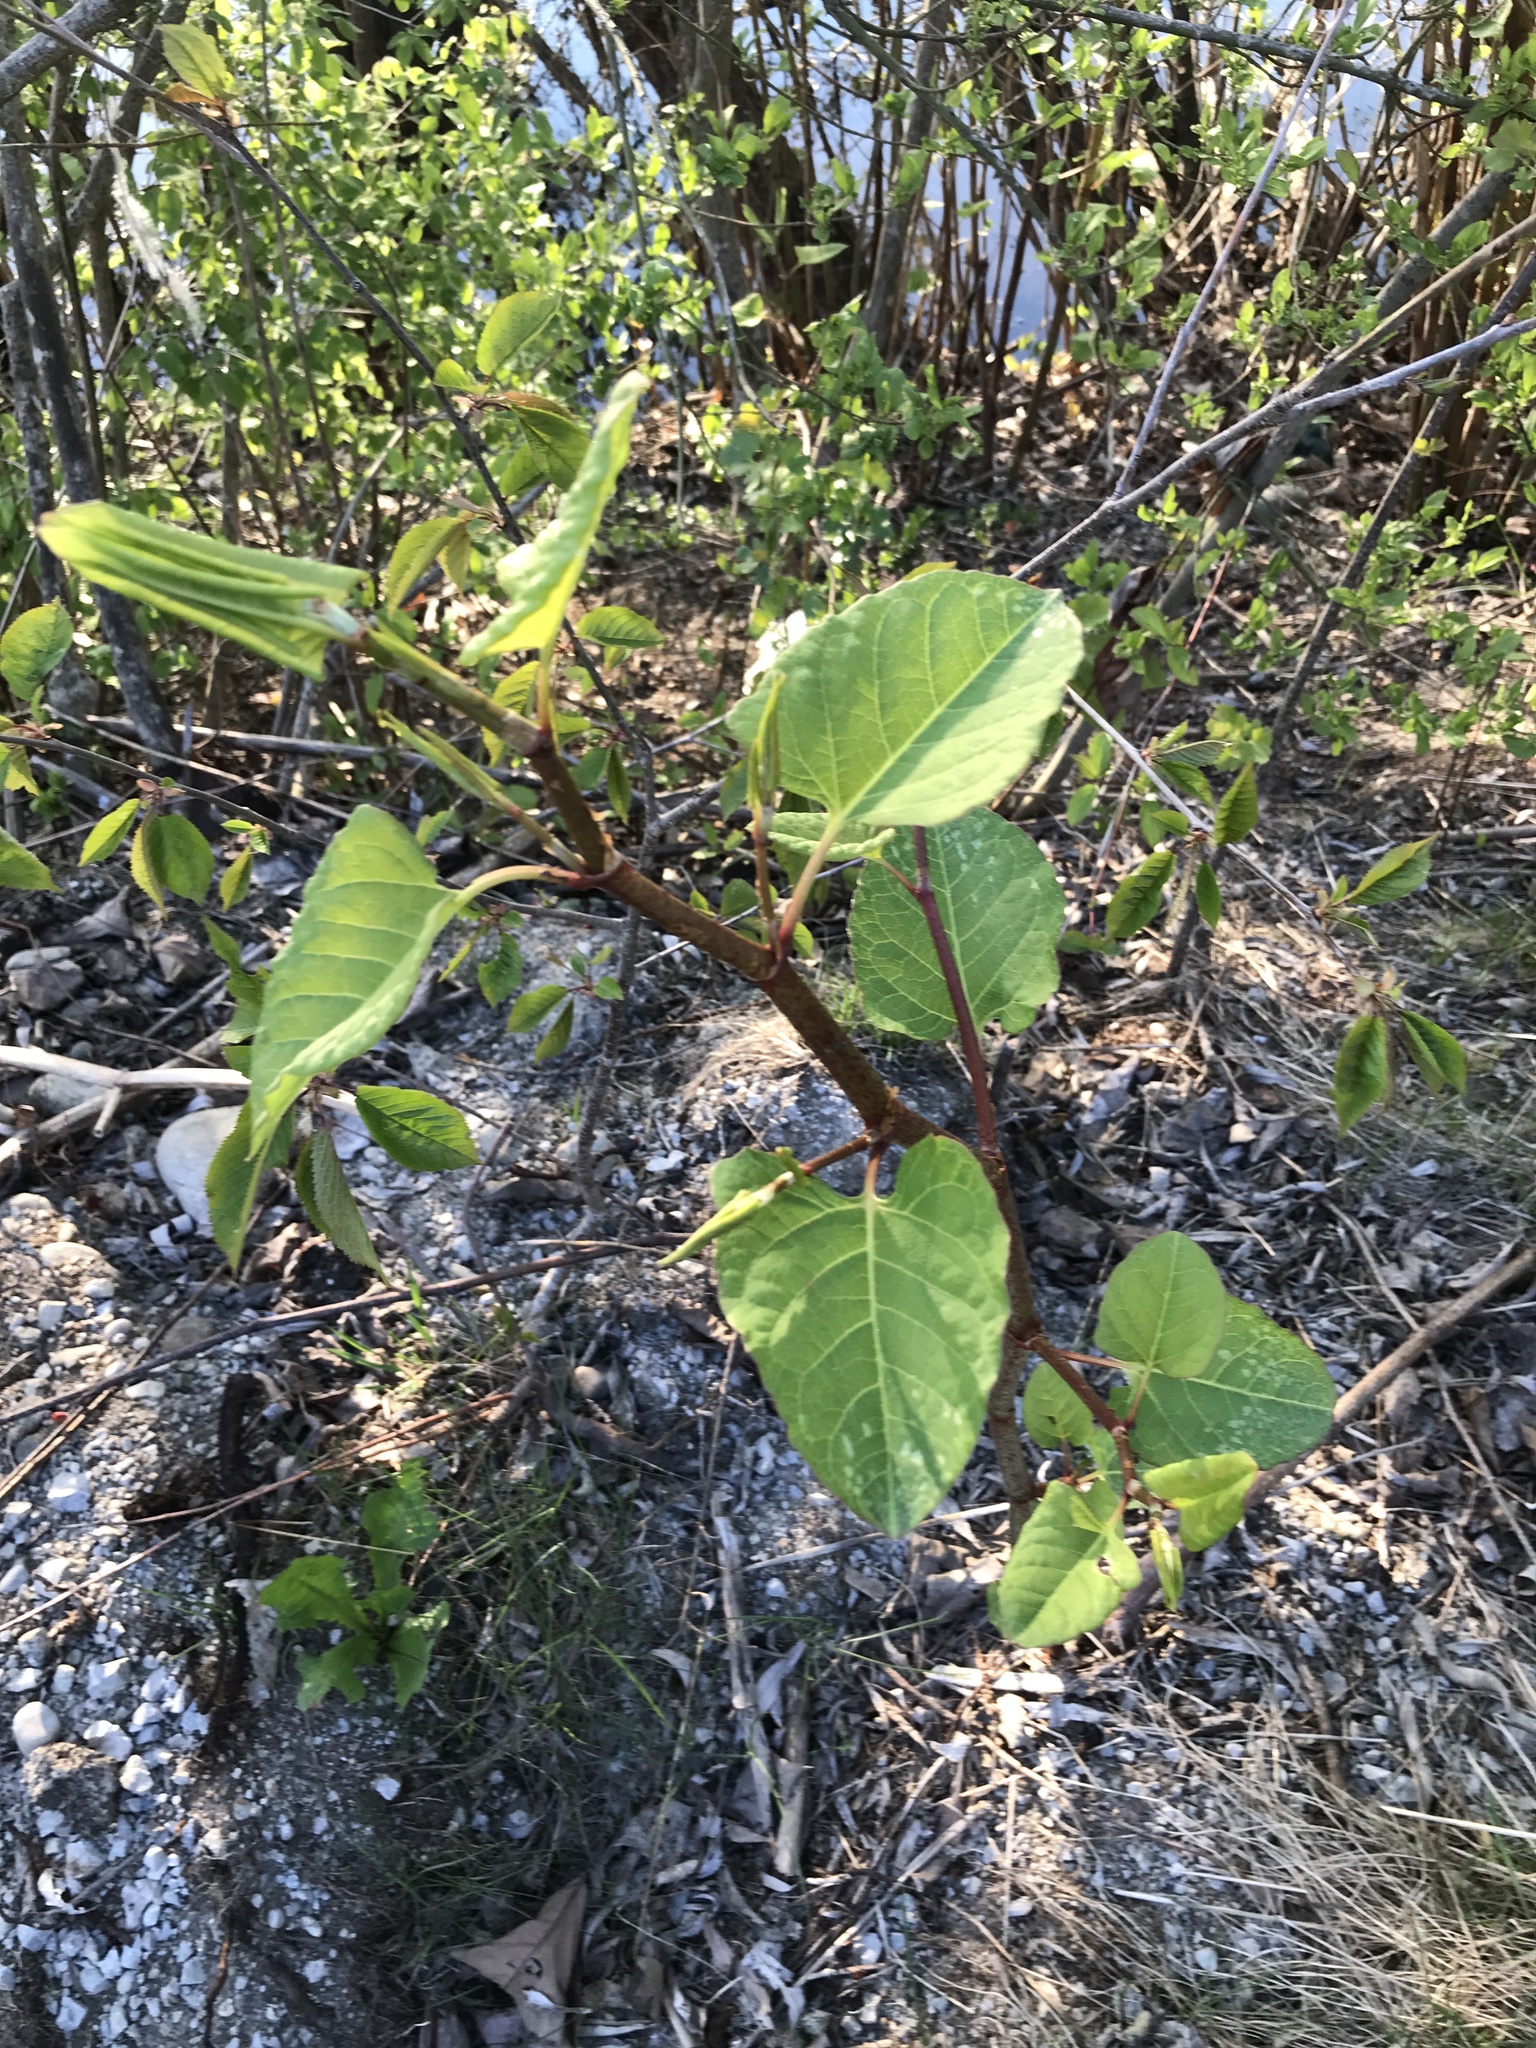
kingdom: Plantae
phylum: Tracheophyta
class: Magnoliopsida
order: Caryophyllales
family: Polygonaceae
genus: Reynoutria
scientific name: Reynoutria japonica
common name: Japanese knotweed
